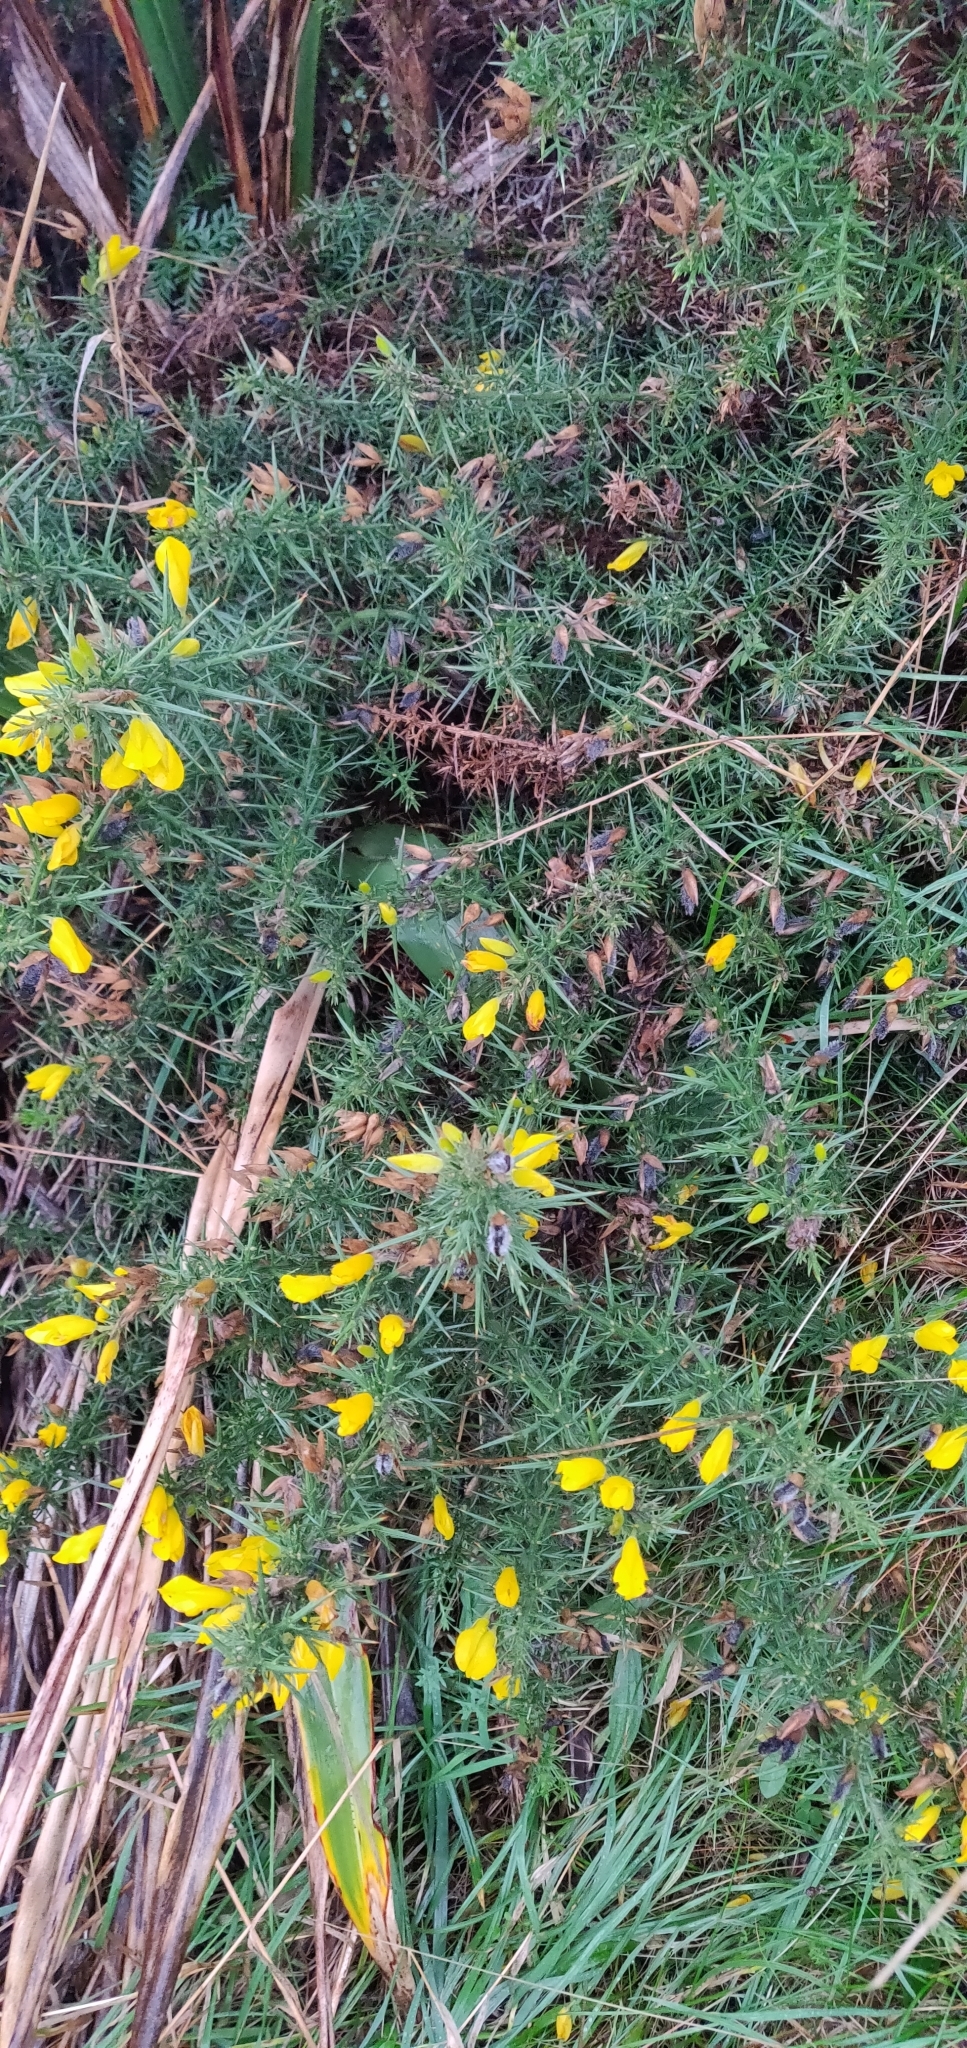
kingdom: Plantae
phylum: Tracheophyta
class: Magnoliopsida
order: Fabales
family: Fabaceae
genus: Ulex
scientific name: Ulex europaeus
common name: Common gorse
